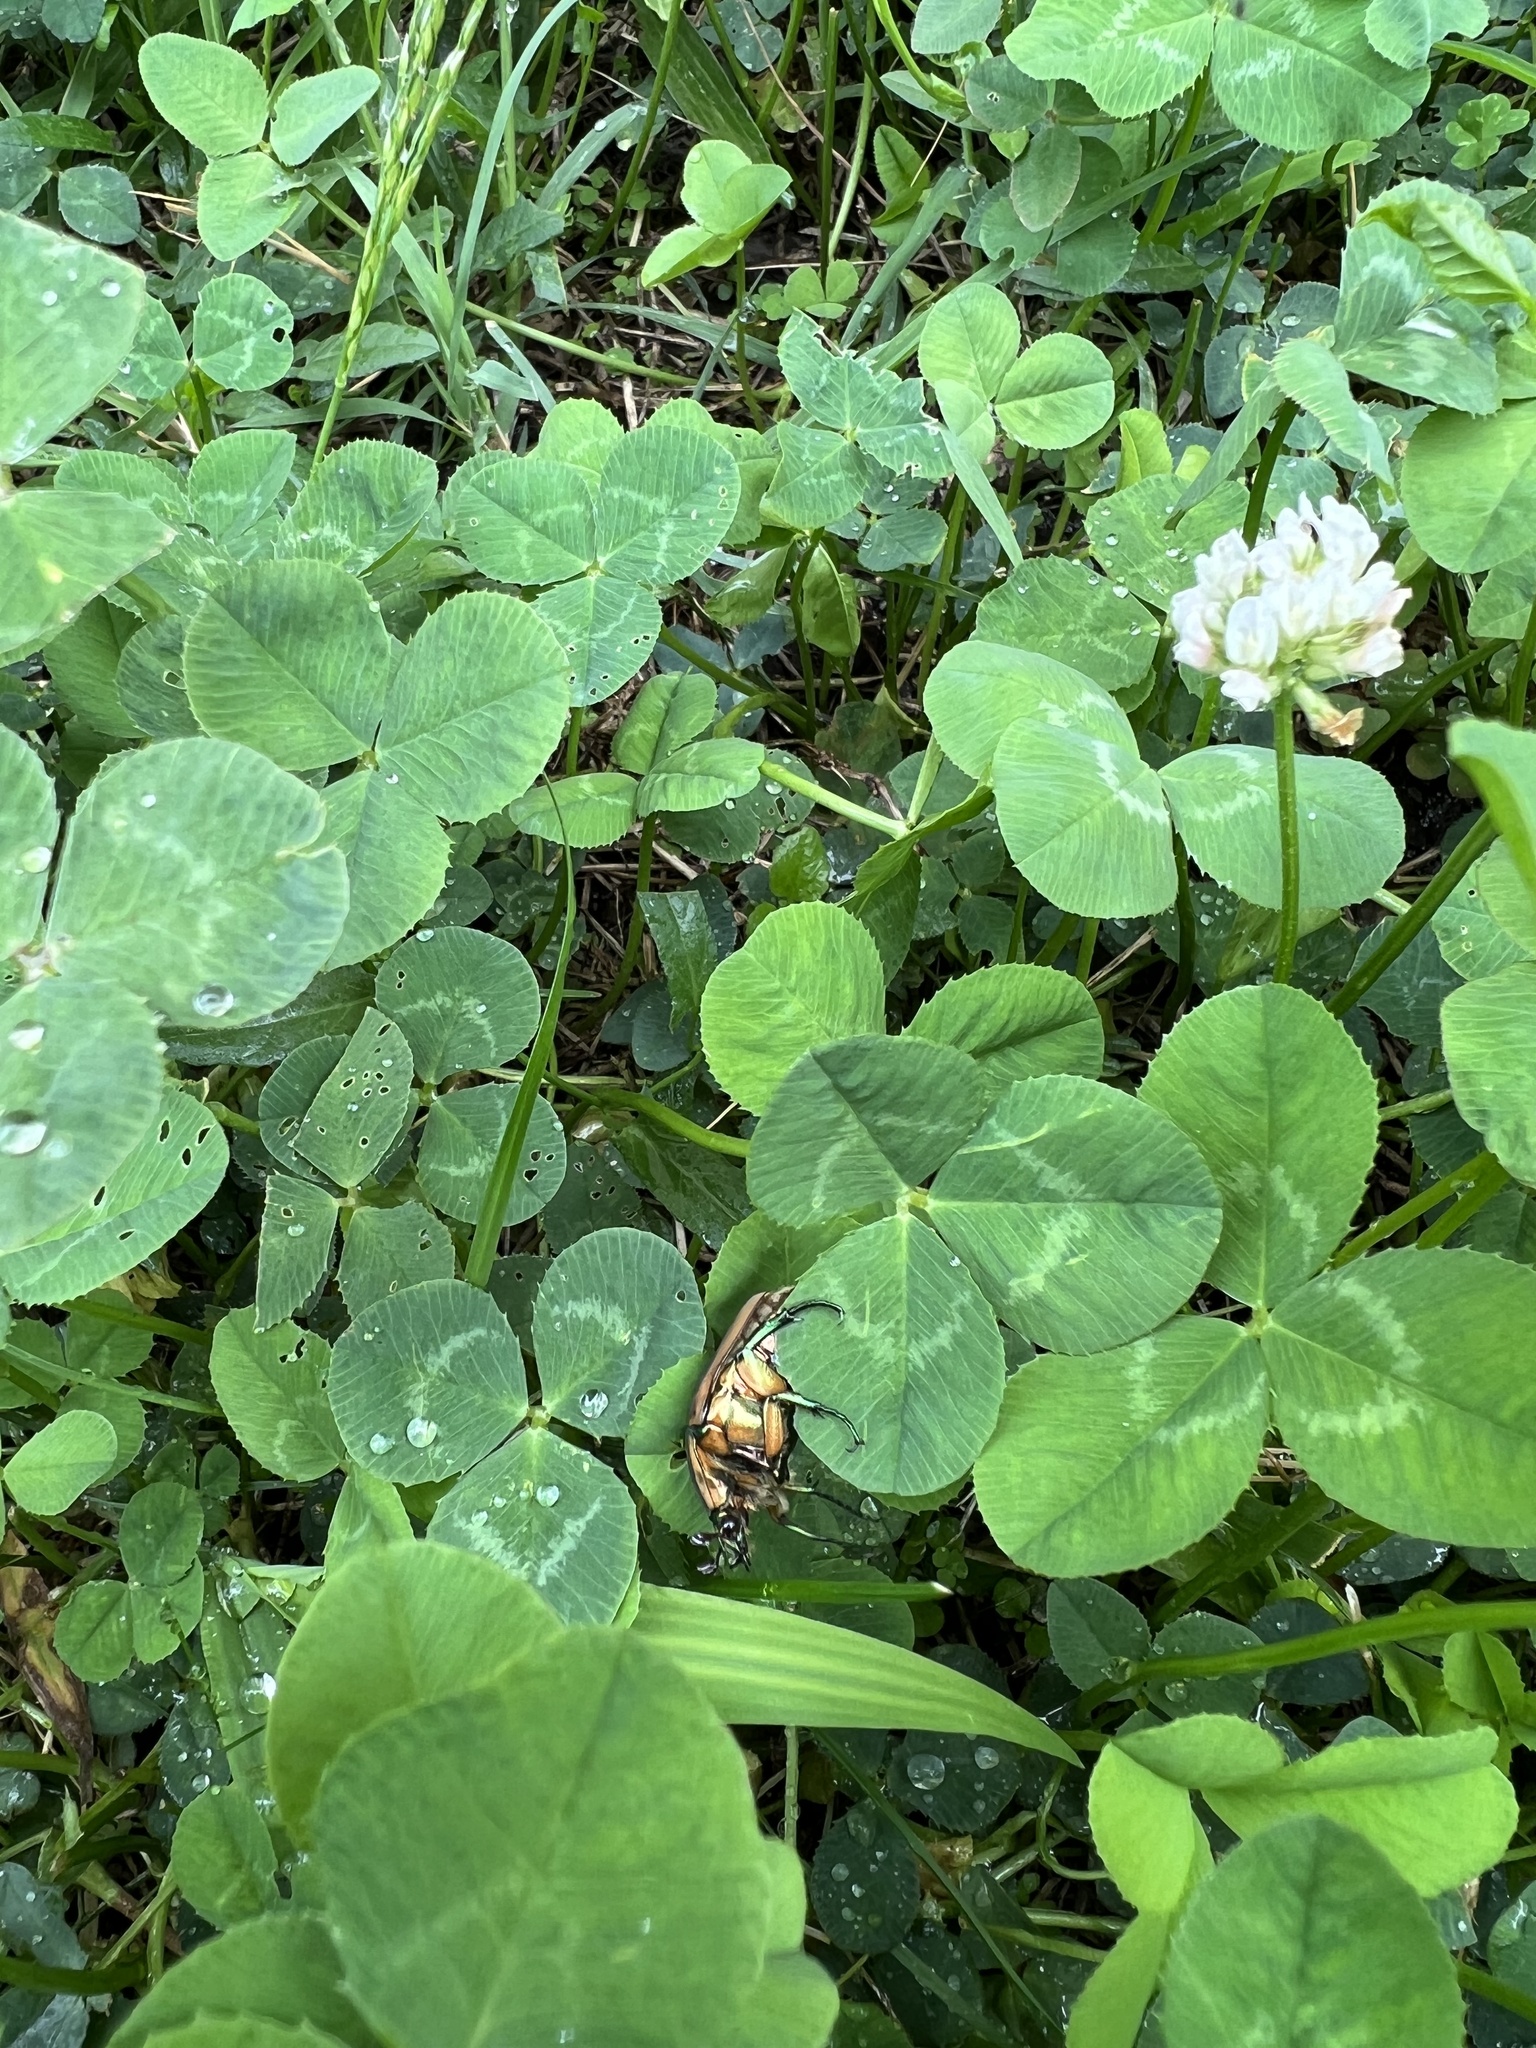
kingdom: Animalia
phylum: Arthropoda
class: Insecta
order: Coleoptera
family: Scarabaeidae
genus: Cotinis
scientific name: Cotinis nitida
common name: Common green june beetle
